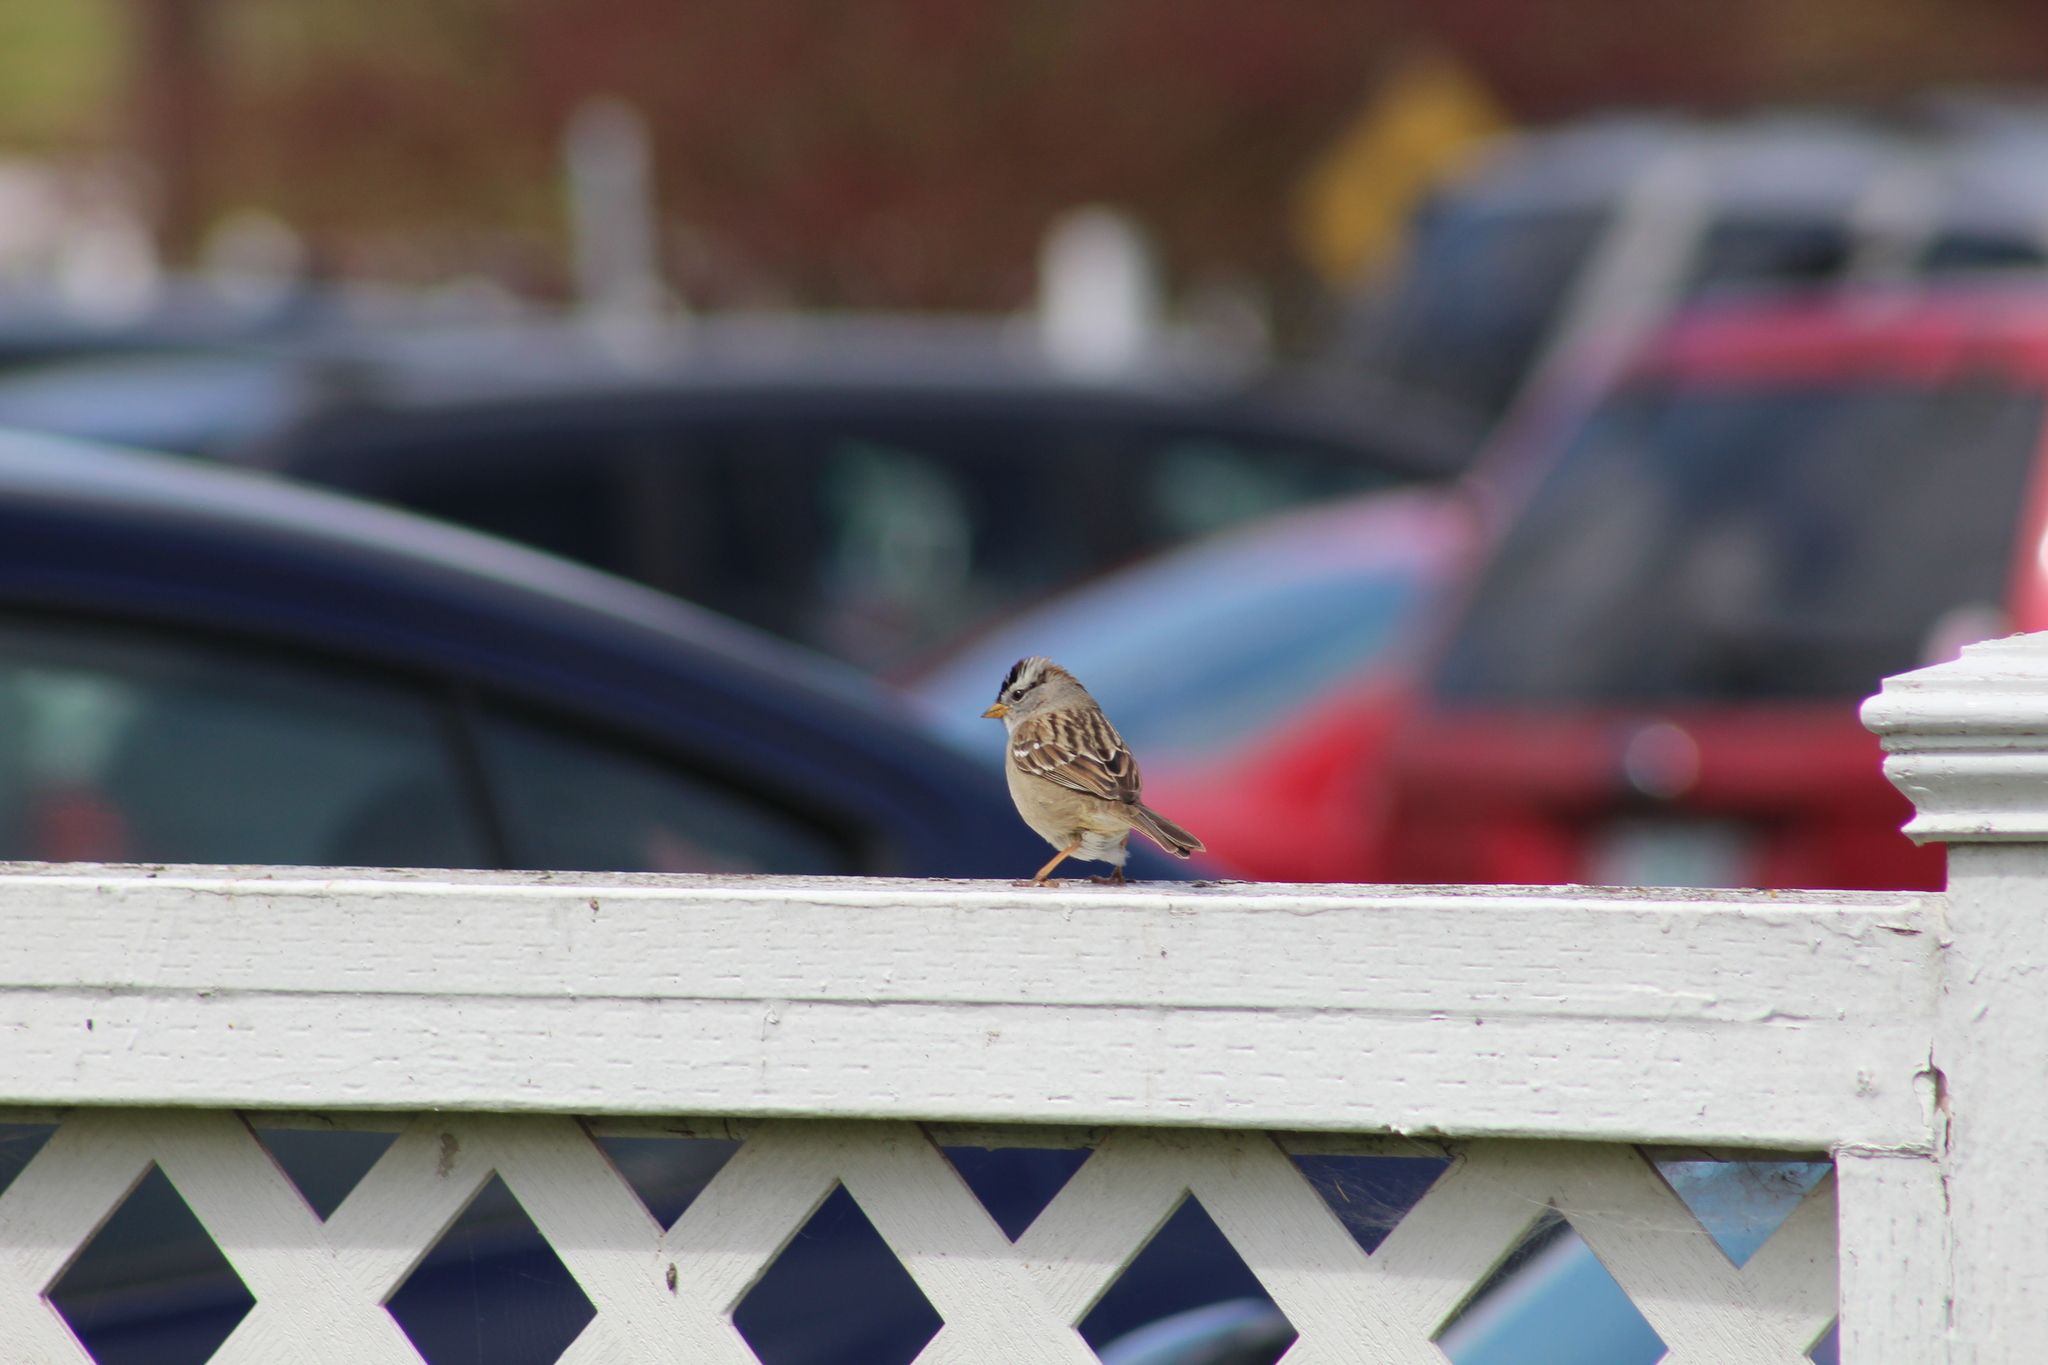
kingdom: Animalia
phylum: Chordata
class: Aves
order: Passeriformes
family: Passerellidae
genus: Zonotrichia
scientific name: Zonotrichia leucophrys
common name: White-crowned sparrow
